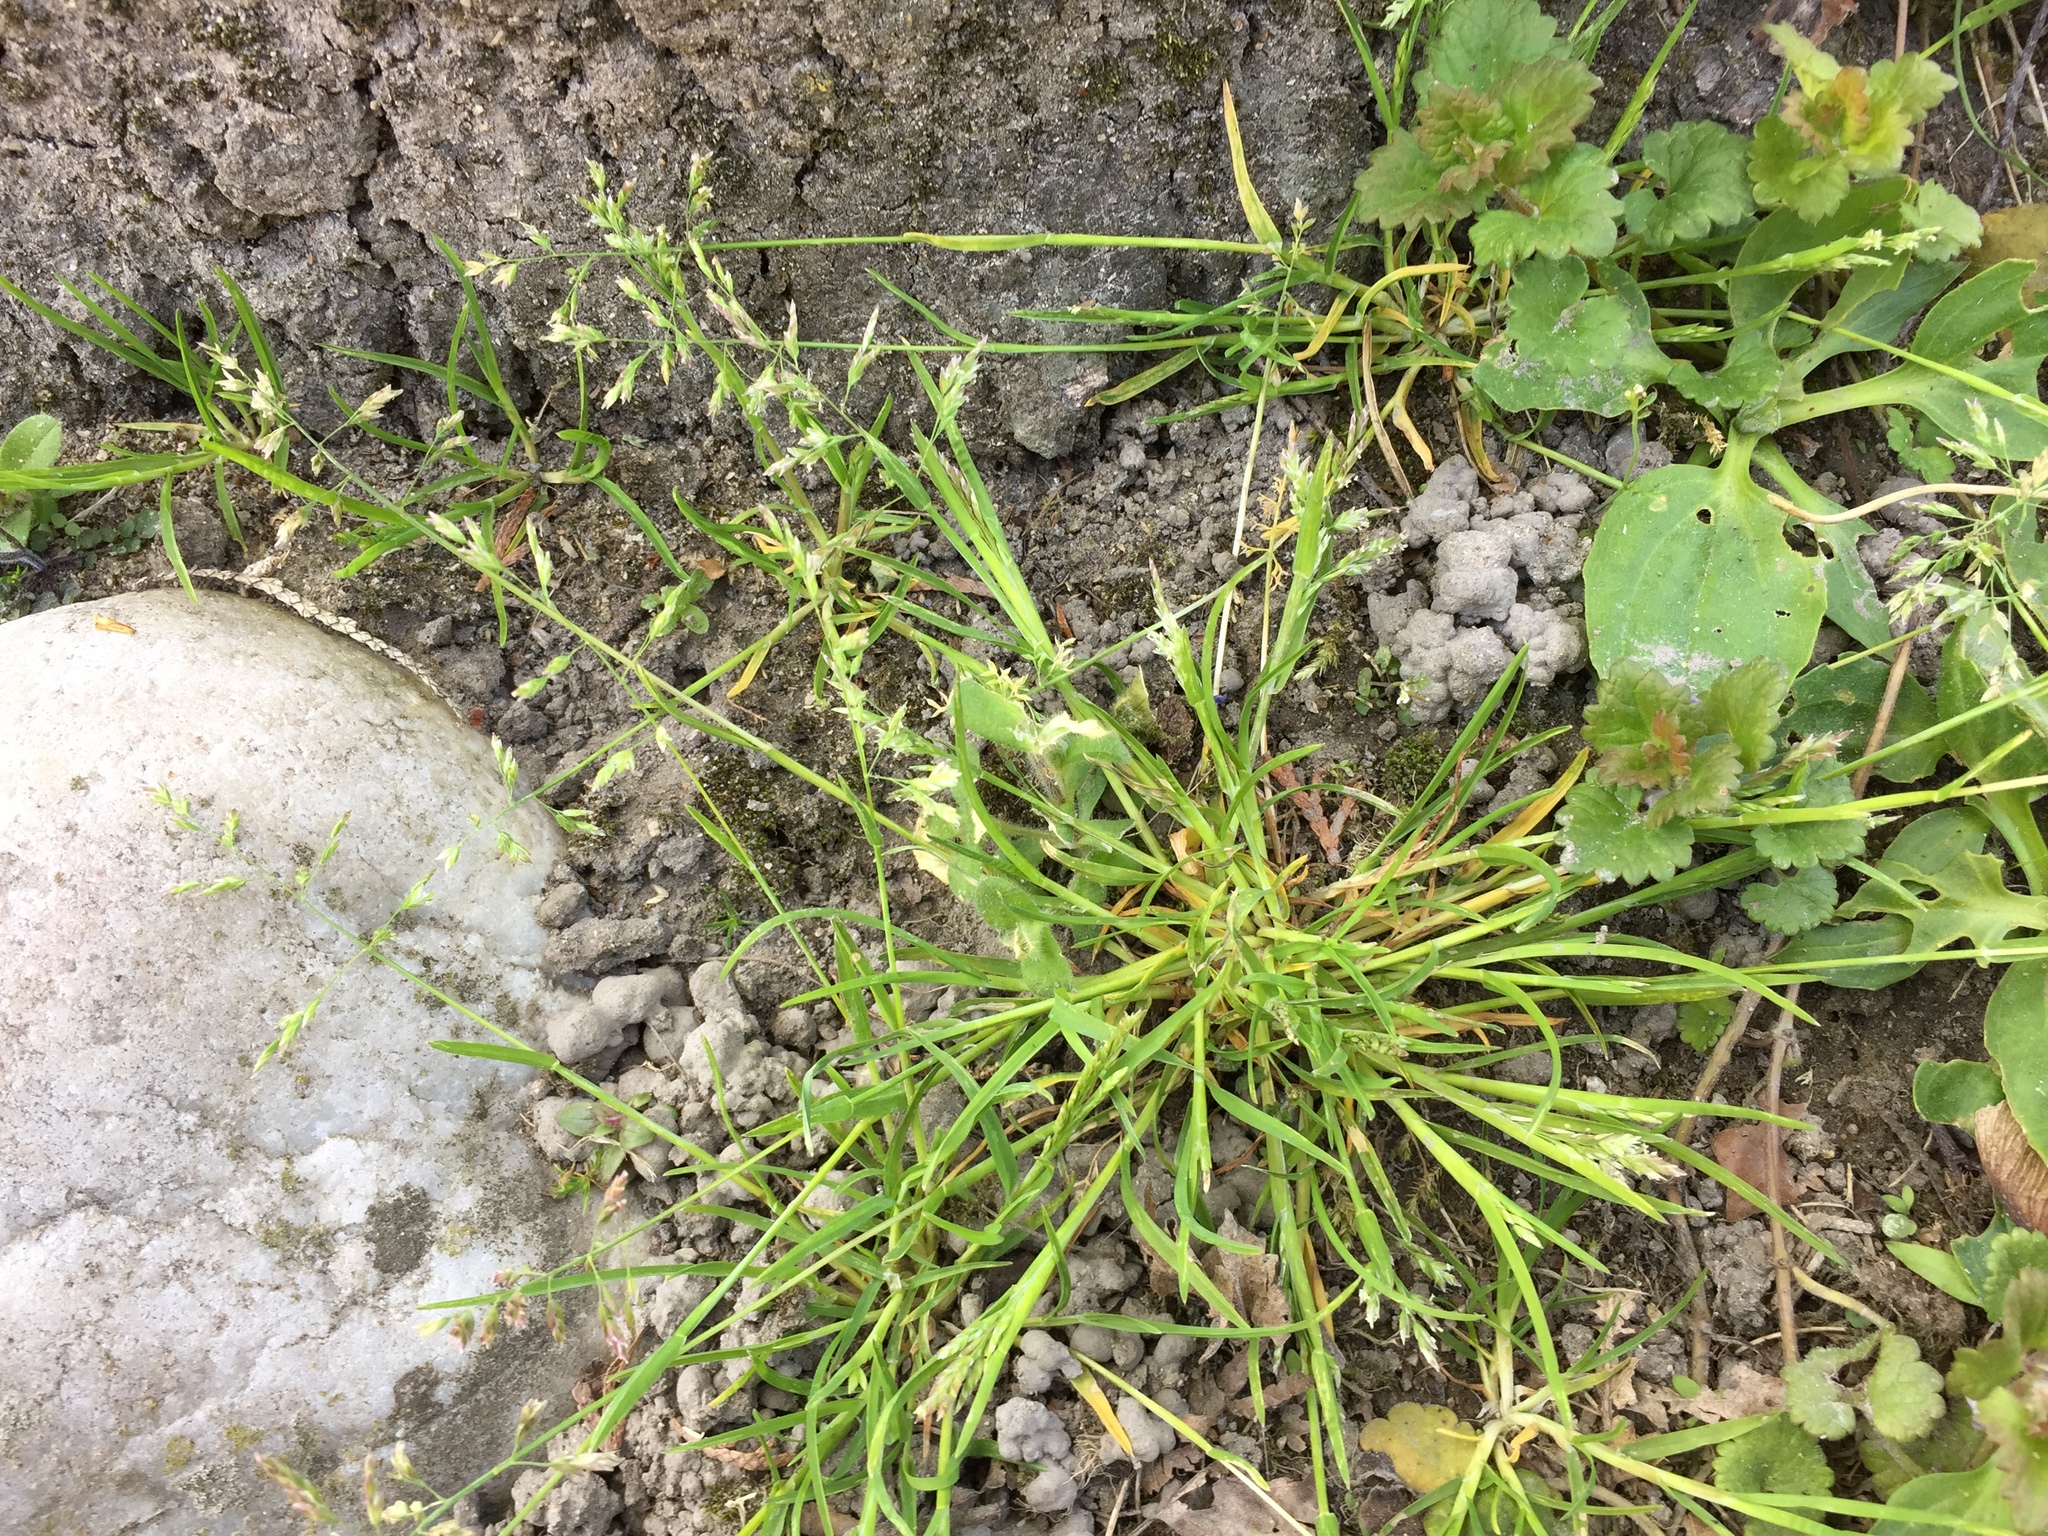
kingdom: Plantae
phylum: Tracheophyta
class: Liliopsida
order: Poales
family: Poaceae
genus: Poa
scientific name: Poa annua
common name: Annual bluegrass
